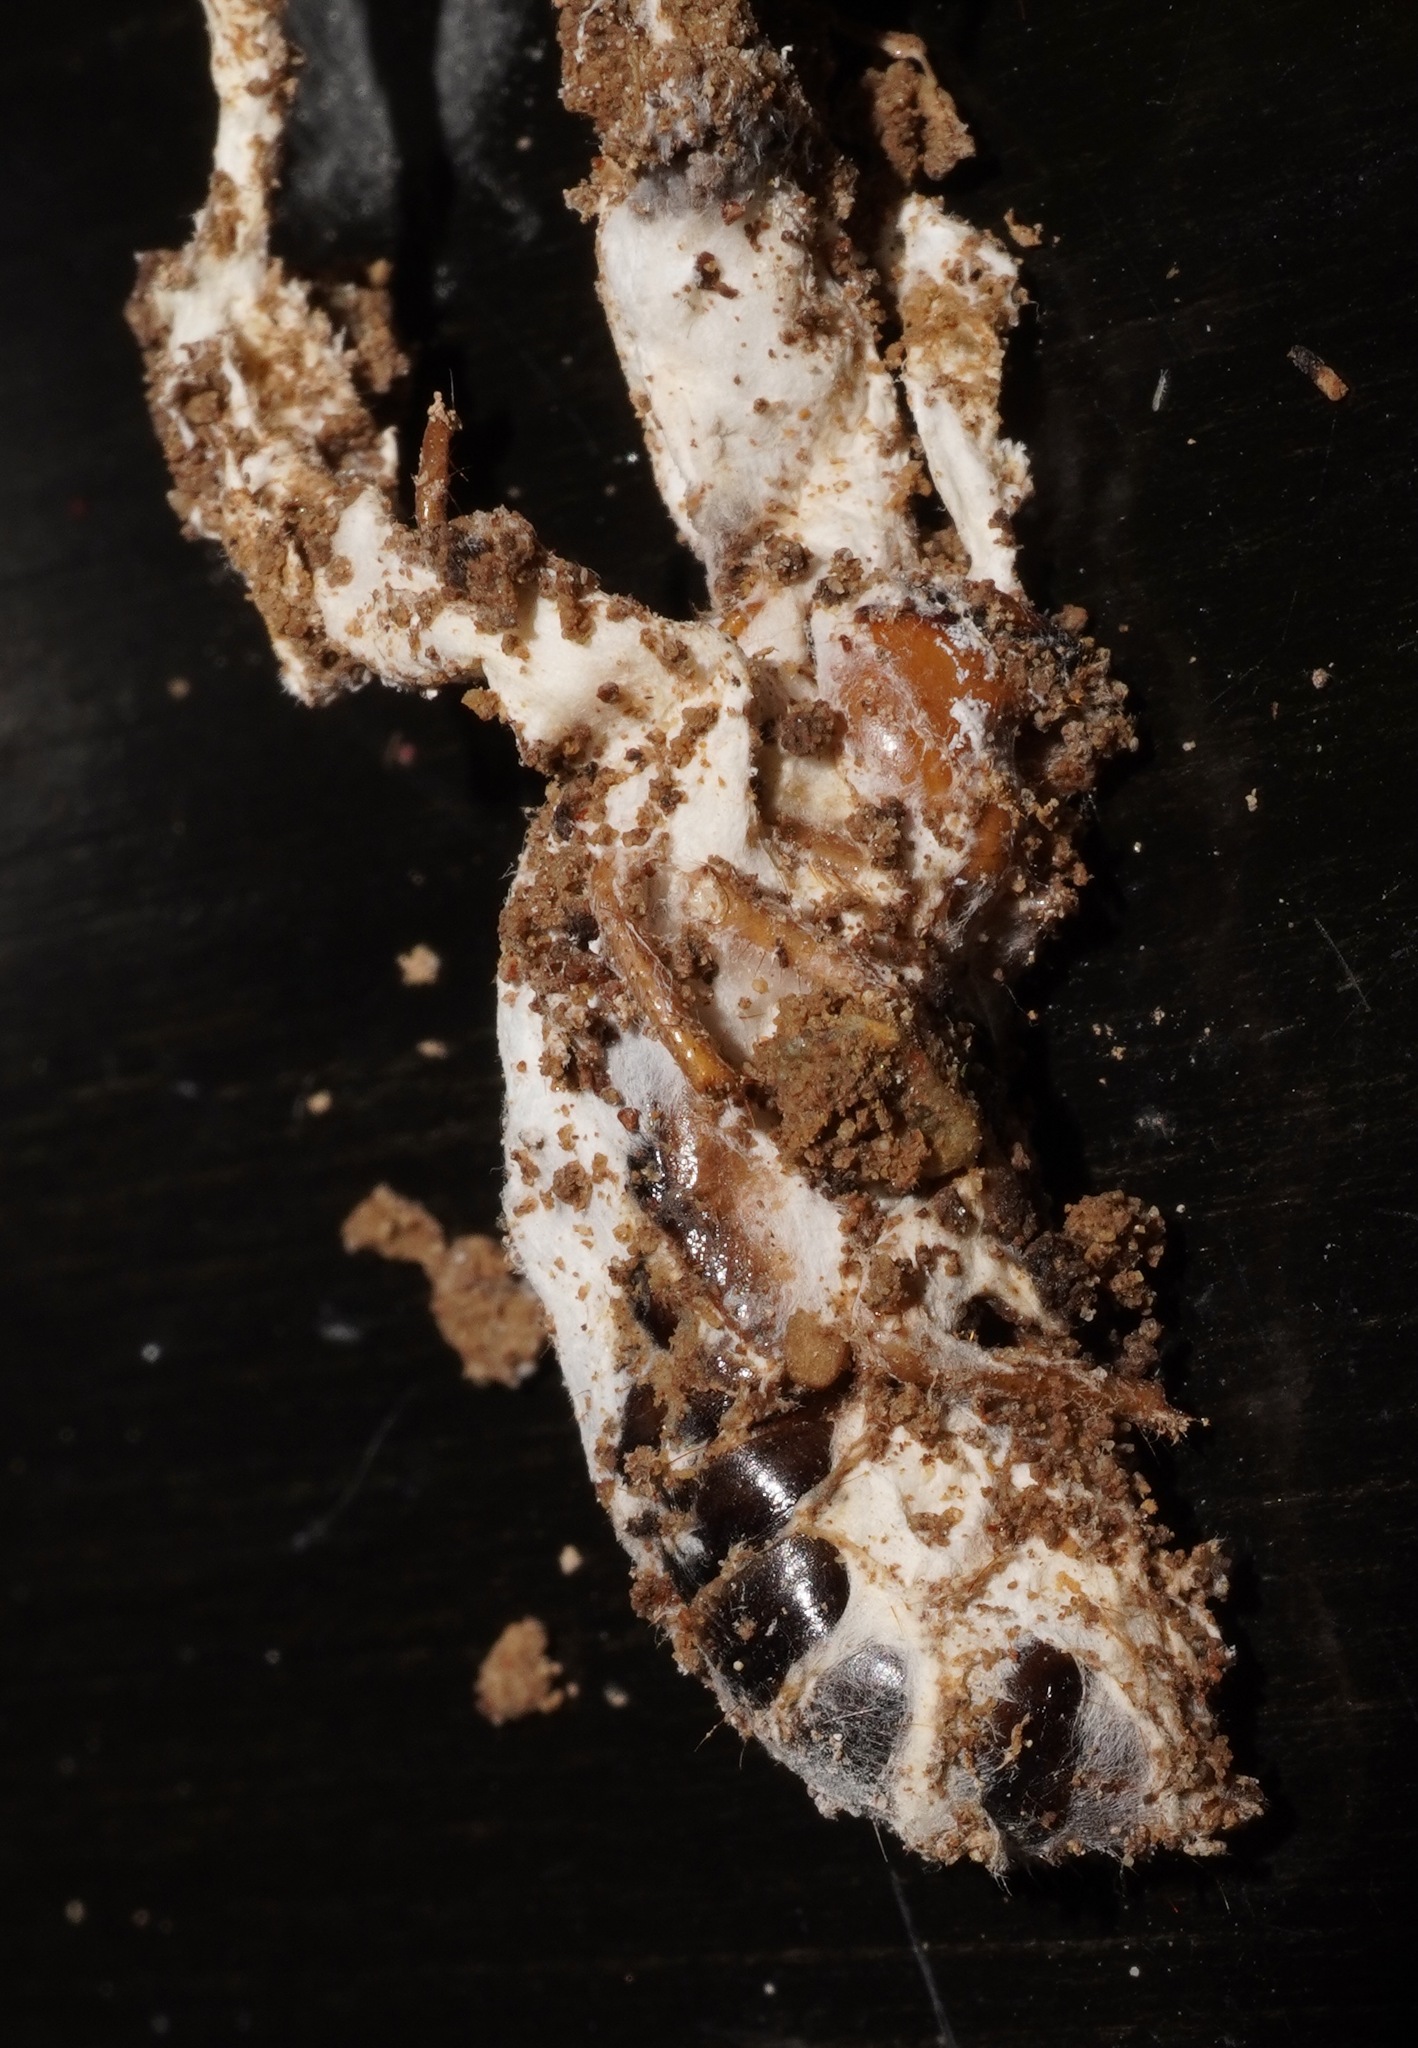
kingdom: Fungi
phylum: Ascomycota
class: Sordariomycetes
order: Hypocreales
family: Cordycipitaceae
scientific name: Cordycipitaceae
